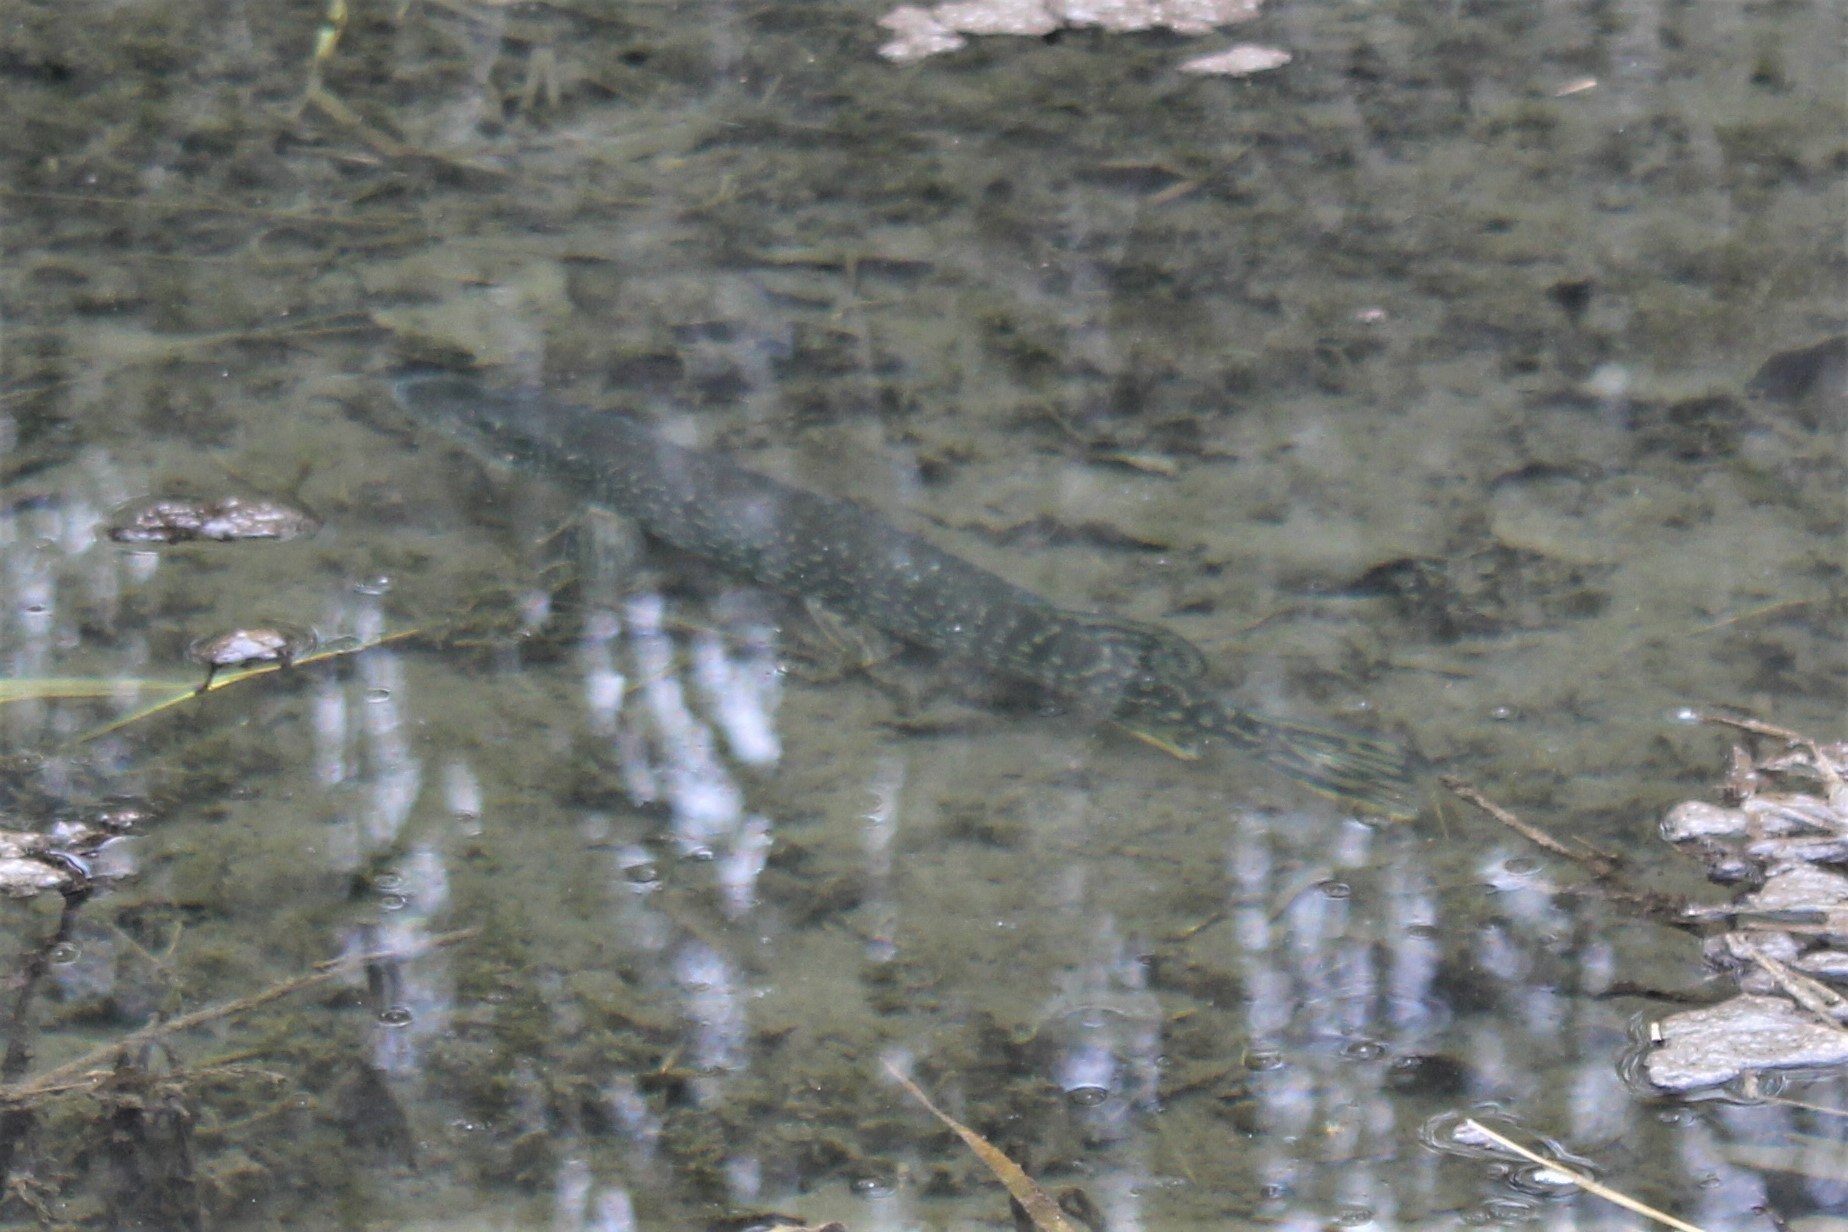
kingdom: Animalia
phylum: Chordata
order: Esociformes
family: Esocidae
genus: Esox
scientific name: Esox lucius
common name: Northern pike
